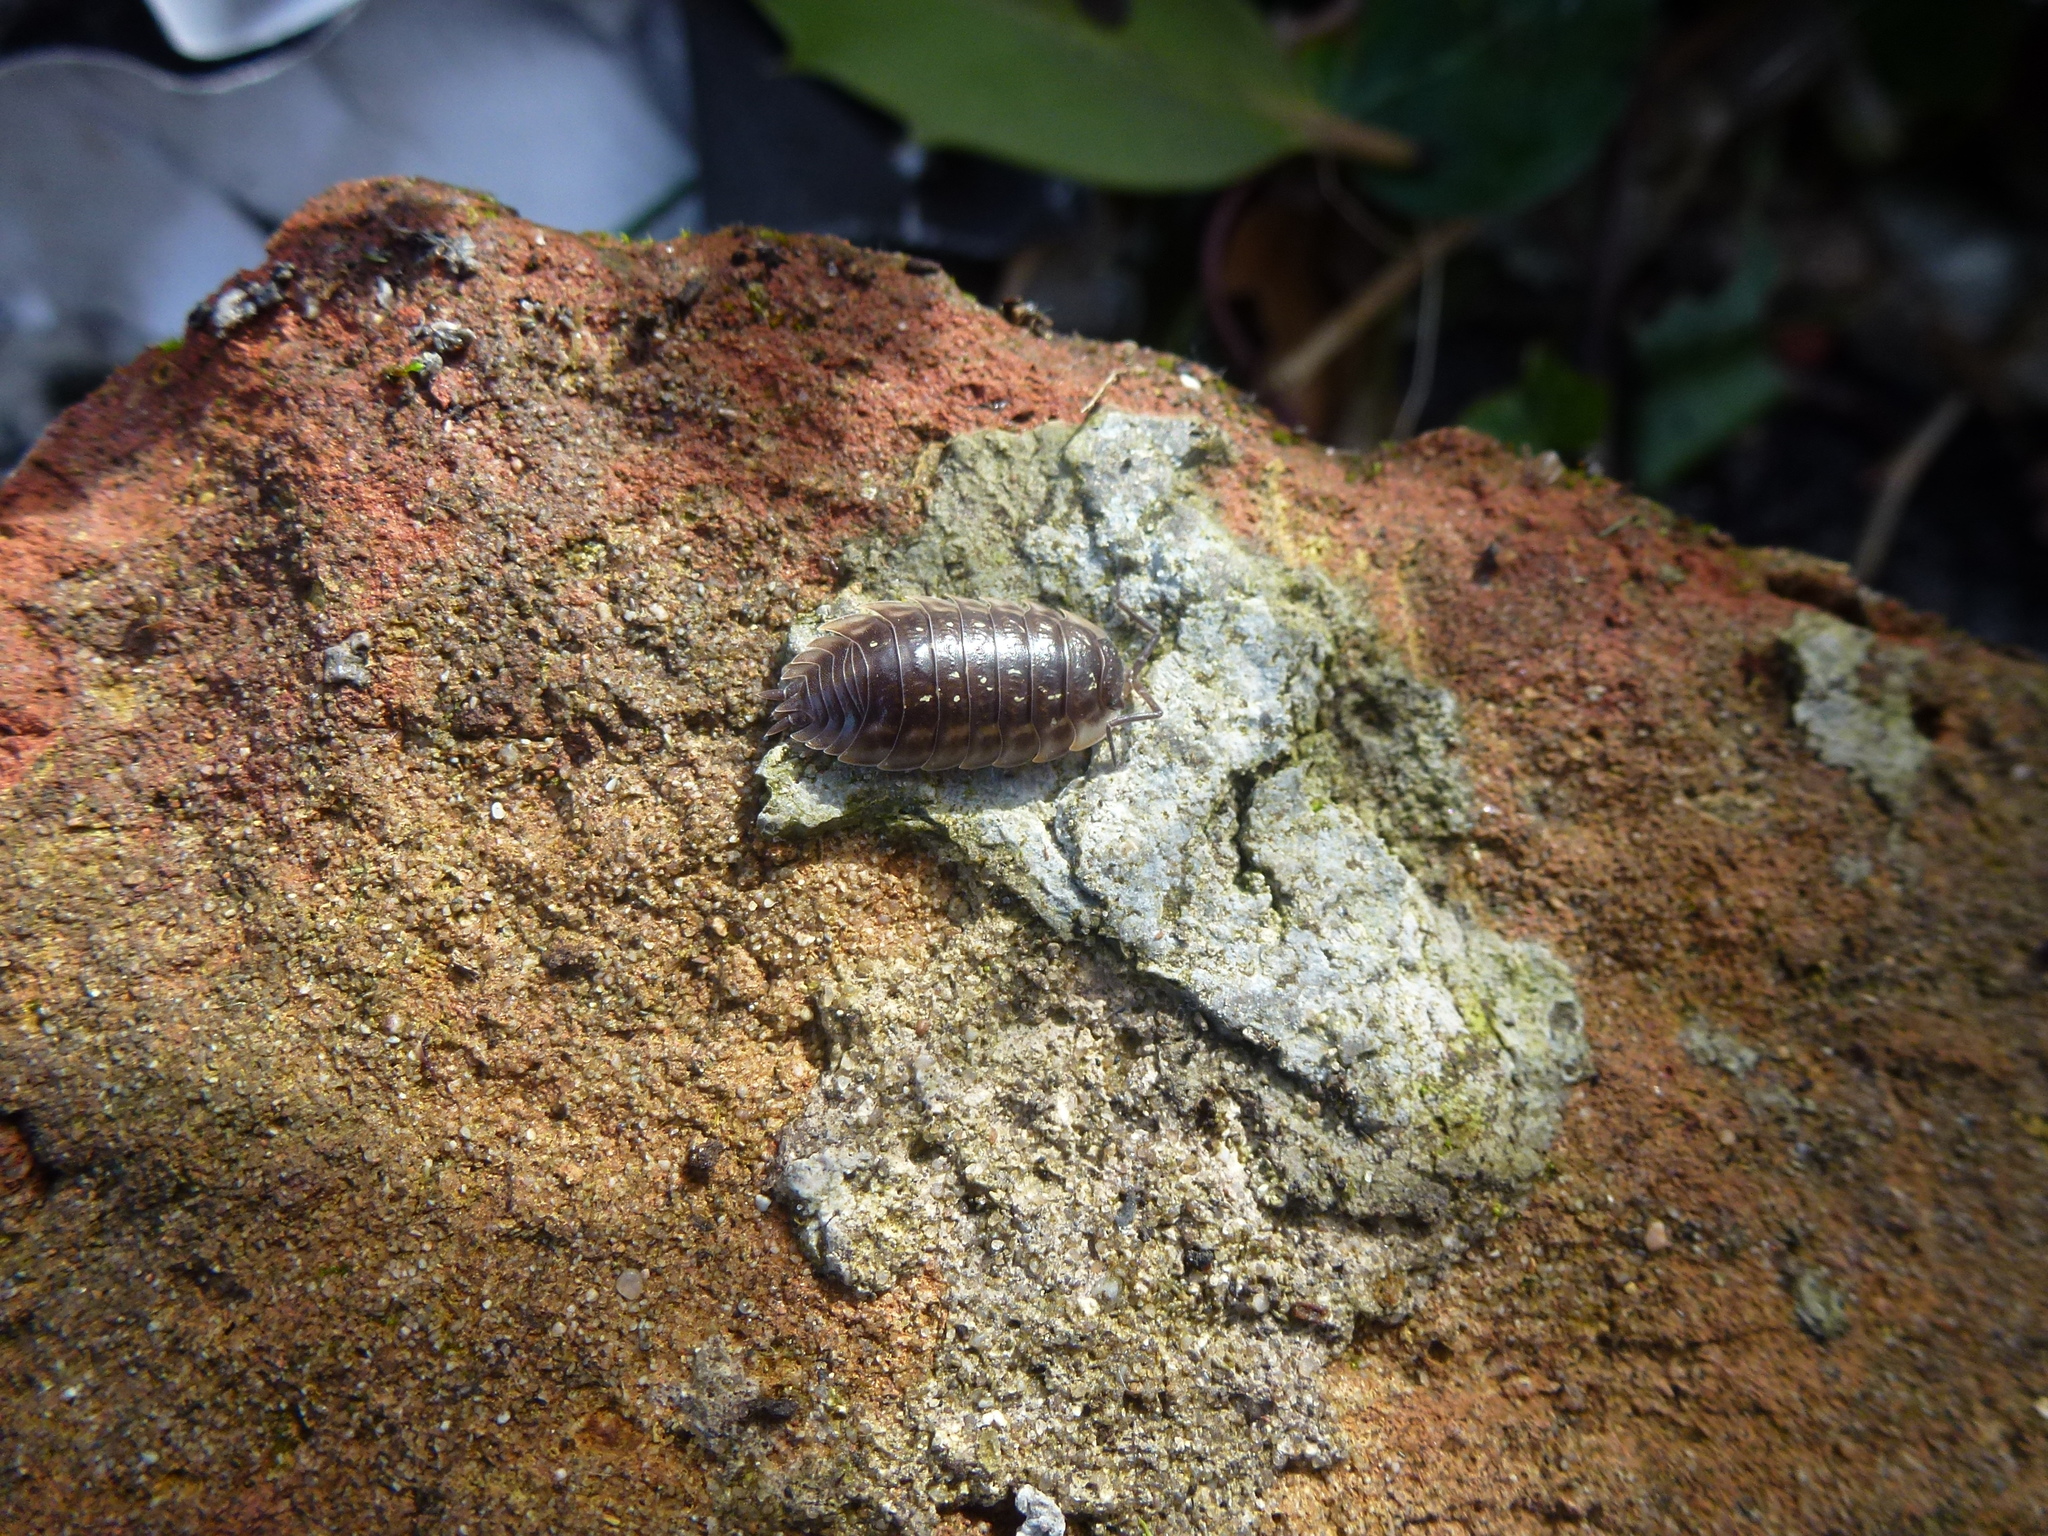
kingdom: Animalia
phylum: Arthropoda
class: Malacostraca
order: Isopoda
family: Oniscidae
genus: Oniscus
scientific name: Oniscus asellus
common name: Common shiny woodlouse
